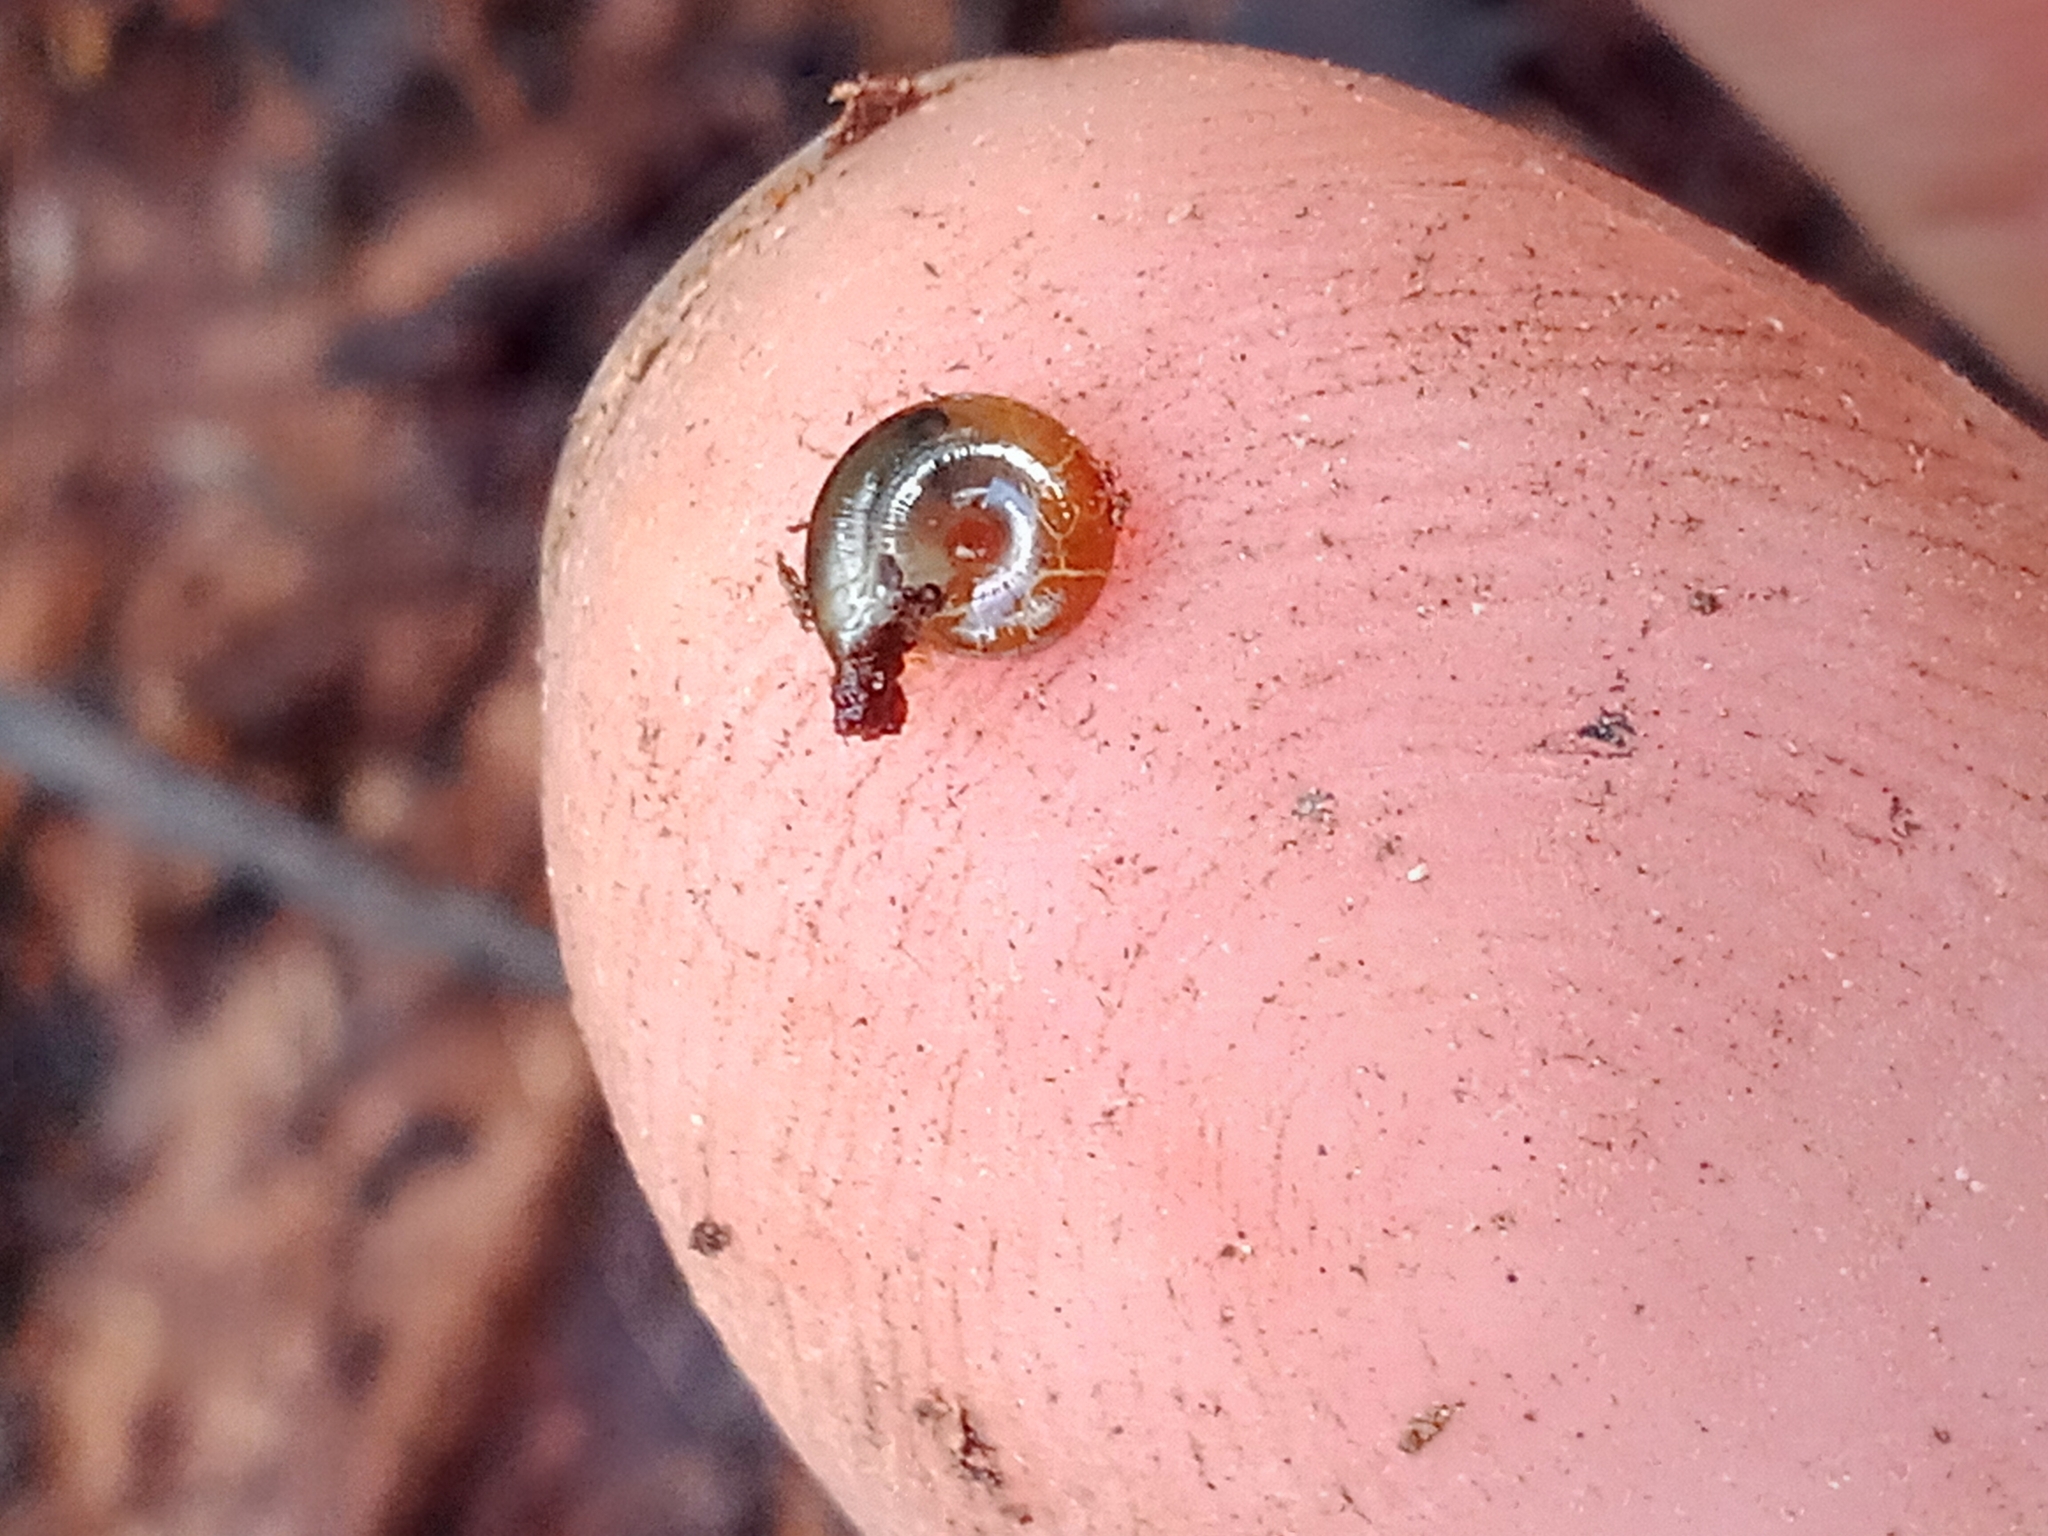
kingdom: Animalia
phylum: Mollusca
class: Gastropoda
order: Stylommatophora
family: Gastrodontidae
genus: Perpolita
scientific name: Perpolita hammonis
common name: Rayed glass snail
